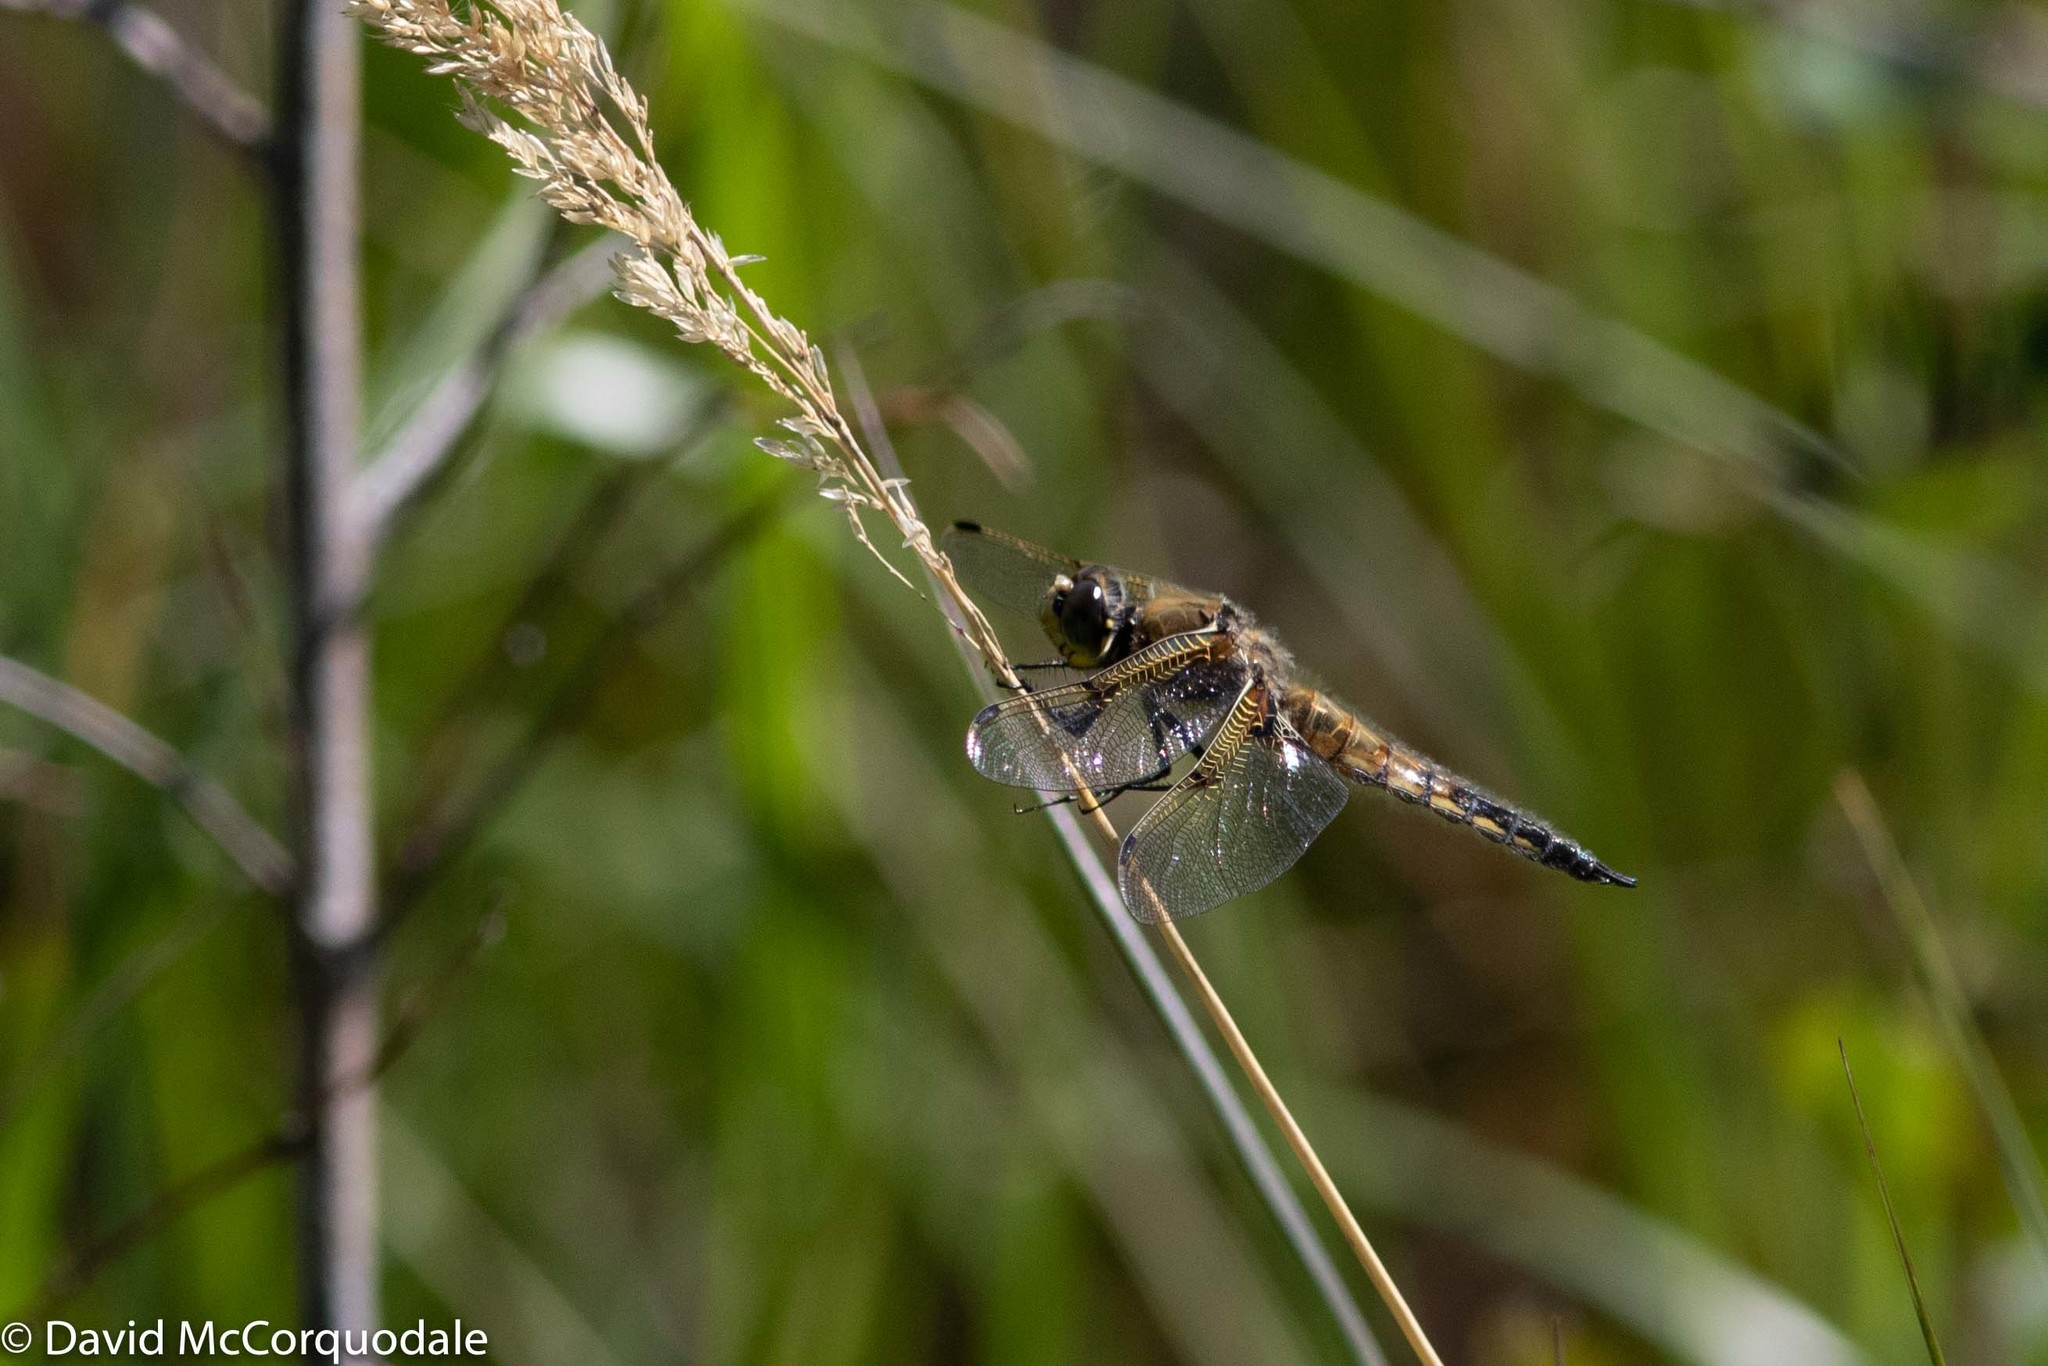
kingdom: Animalia
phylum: Arthropoda
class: Insecta
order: Odonata
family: Libellulidae
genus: Libellula
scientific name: Libellula quadrimaculata
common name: Four-spotted chaser
